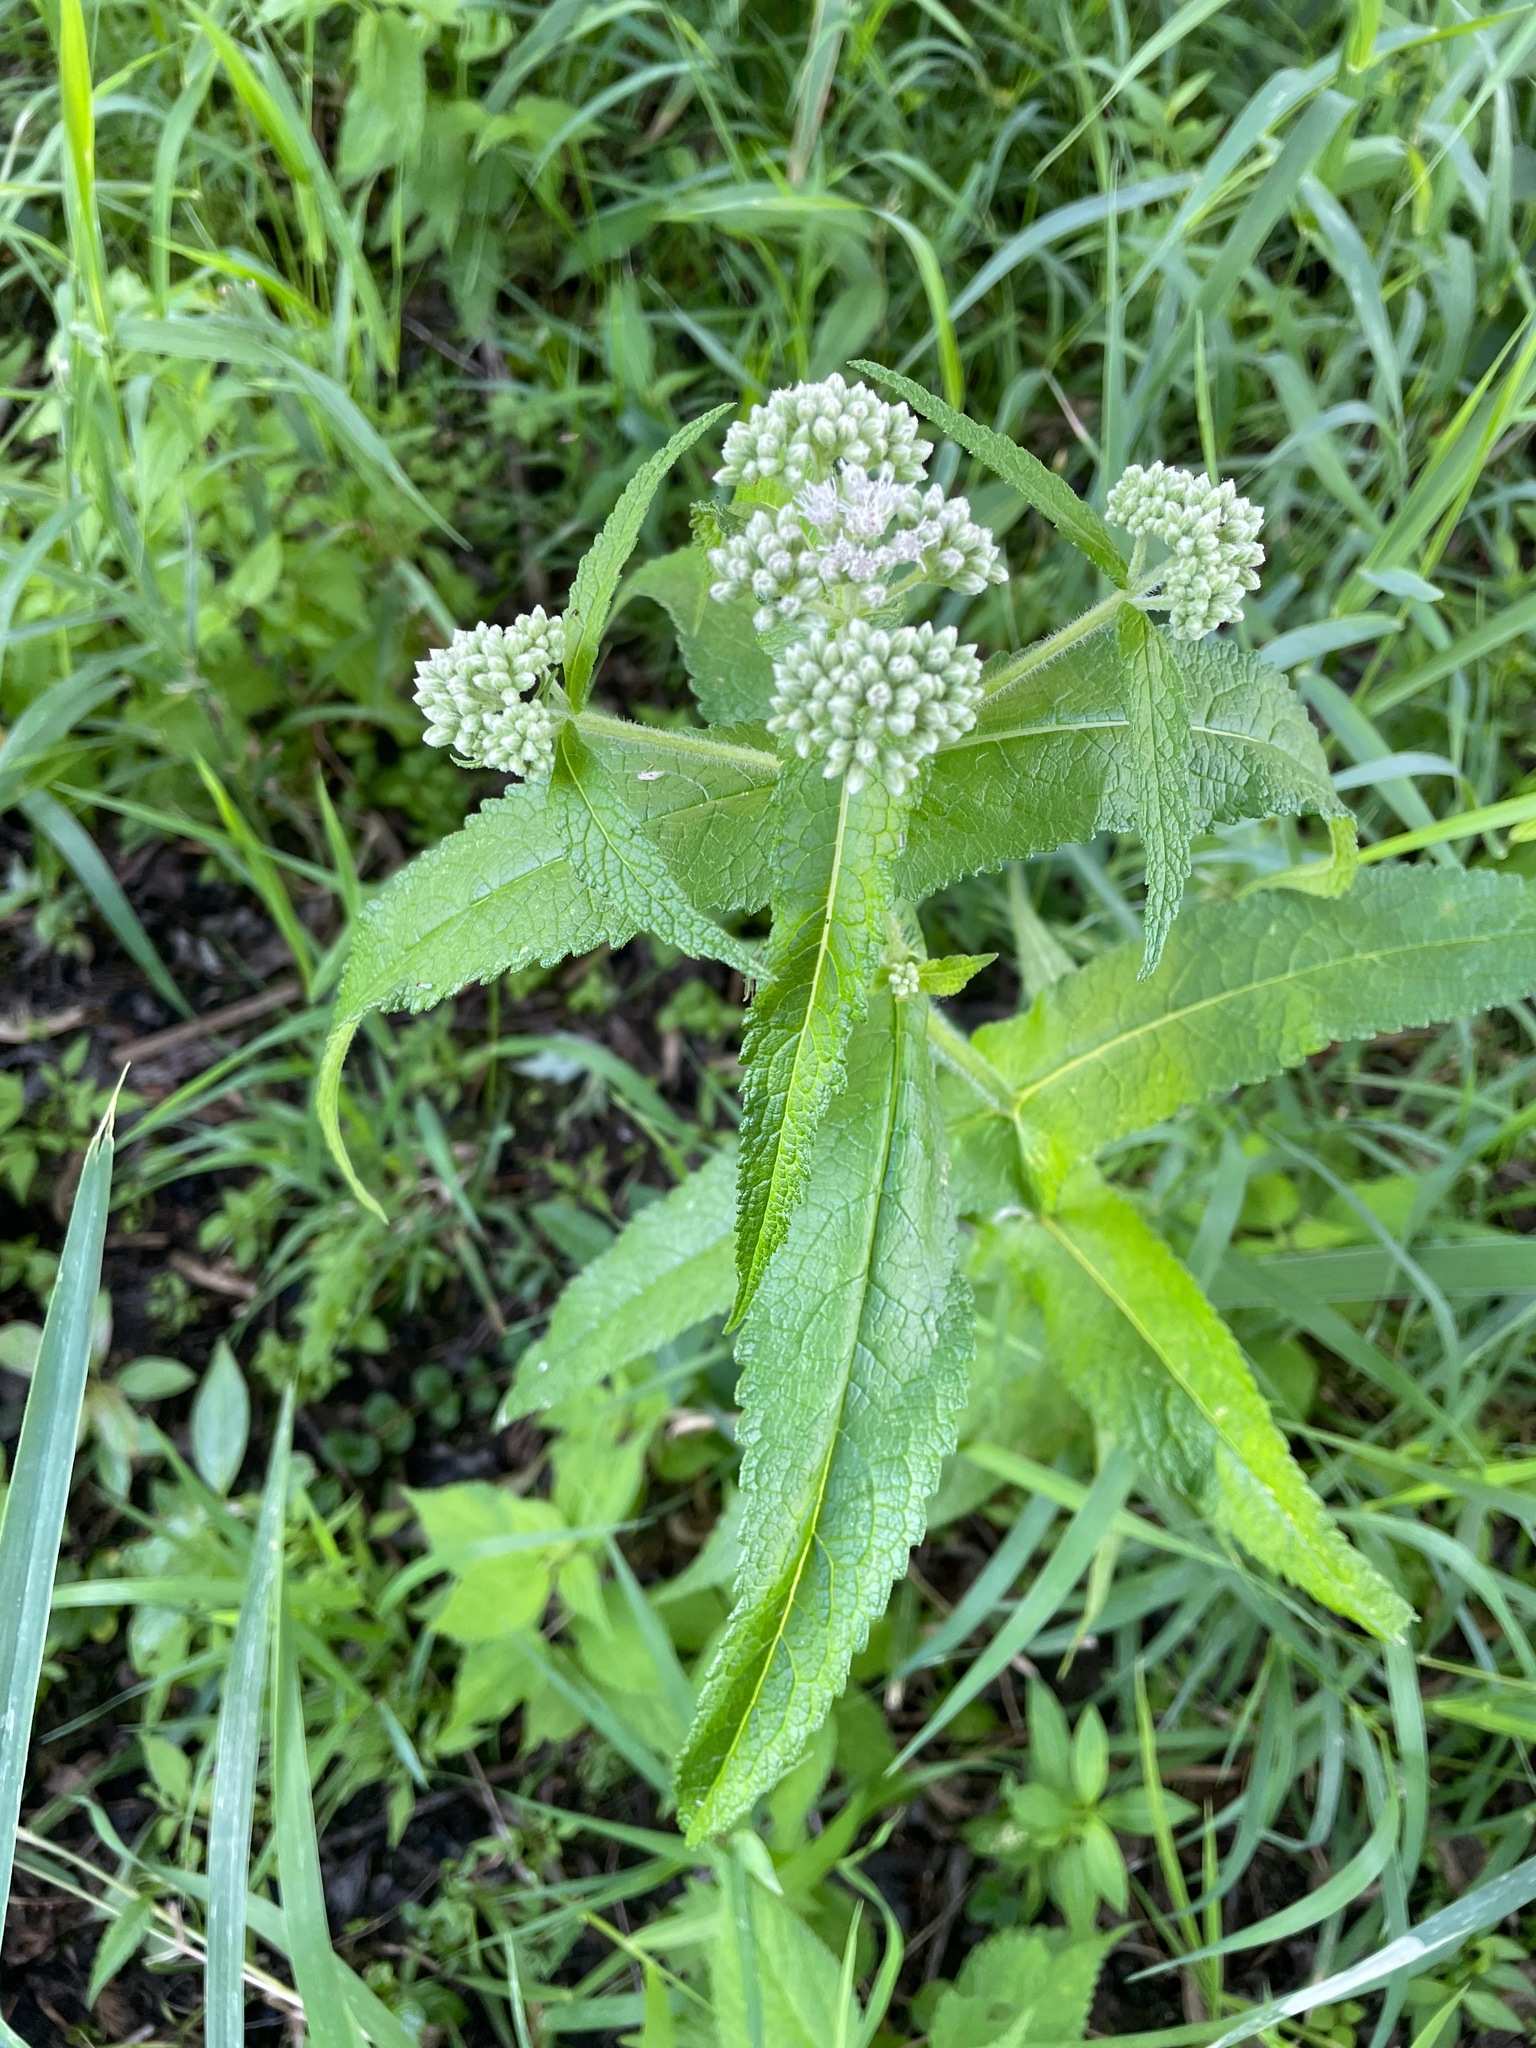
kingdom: Plantae
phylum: Tracheophyta
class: Magnoliopsida
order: Asterales
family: Asteraceae
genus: Eupatorium
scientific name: Eupatorium perfoliatum
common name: Boneset
